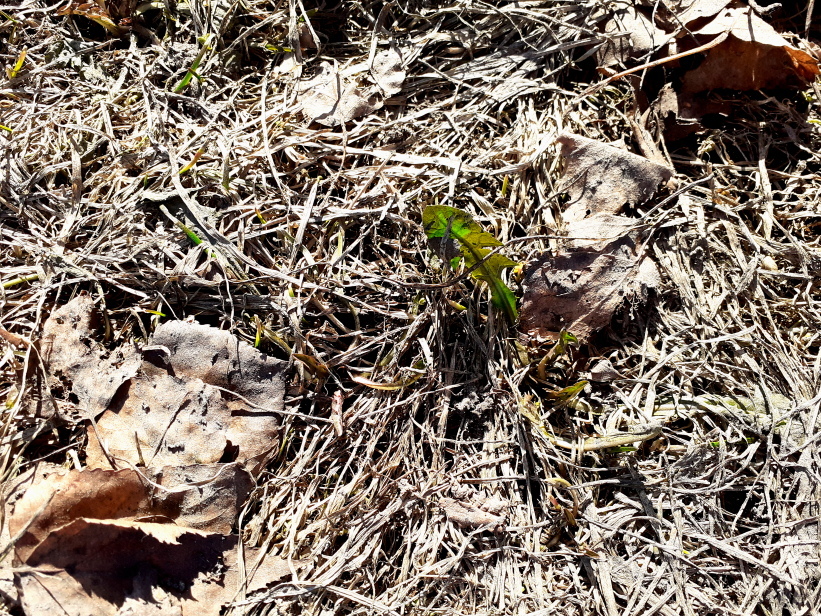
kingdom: Plantae
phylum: Tracheophyta
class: Magnoliopsida
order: Asterales
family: Asteraceae
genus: Taraxacum
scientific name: Taraxacum officinale
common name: Common dandelion
